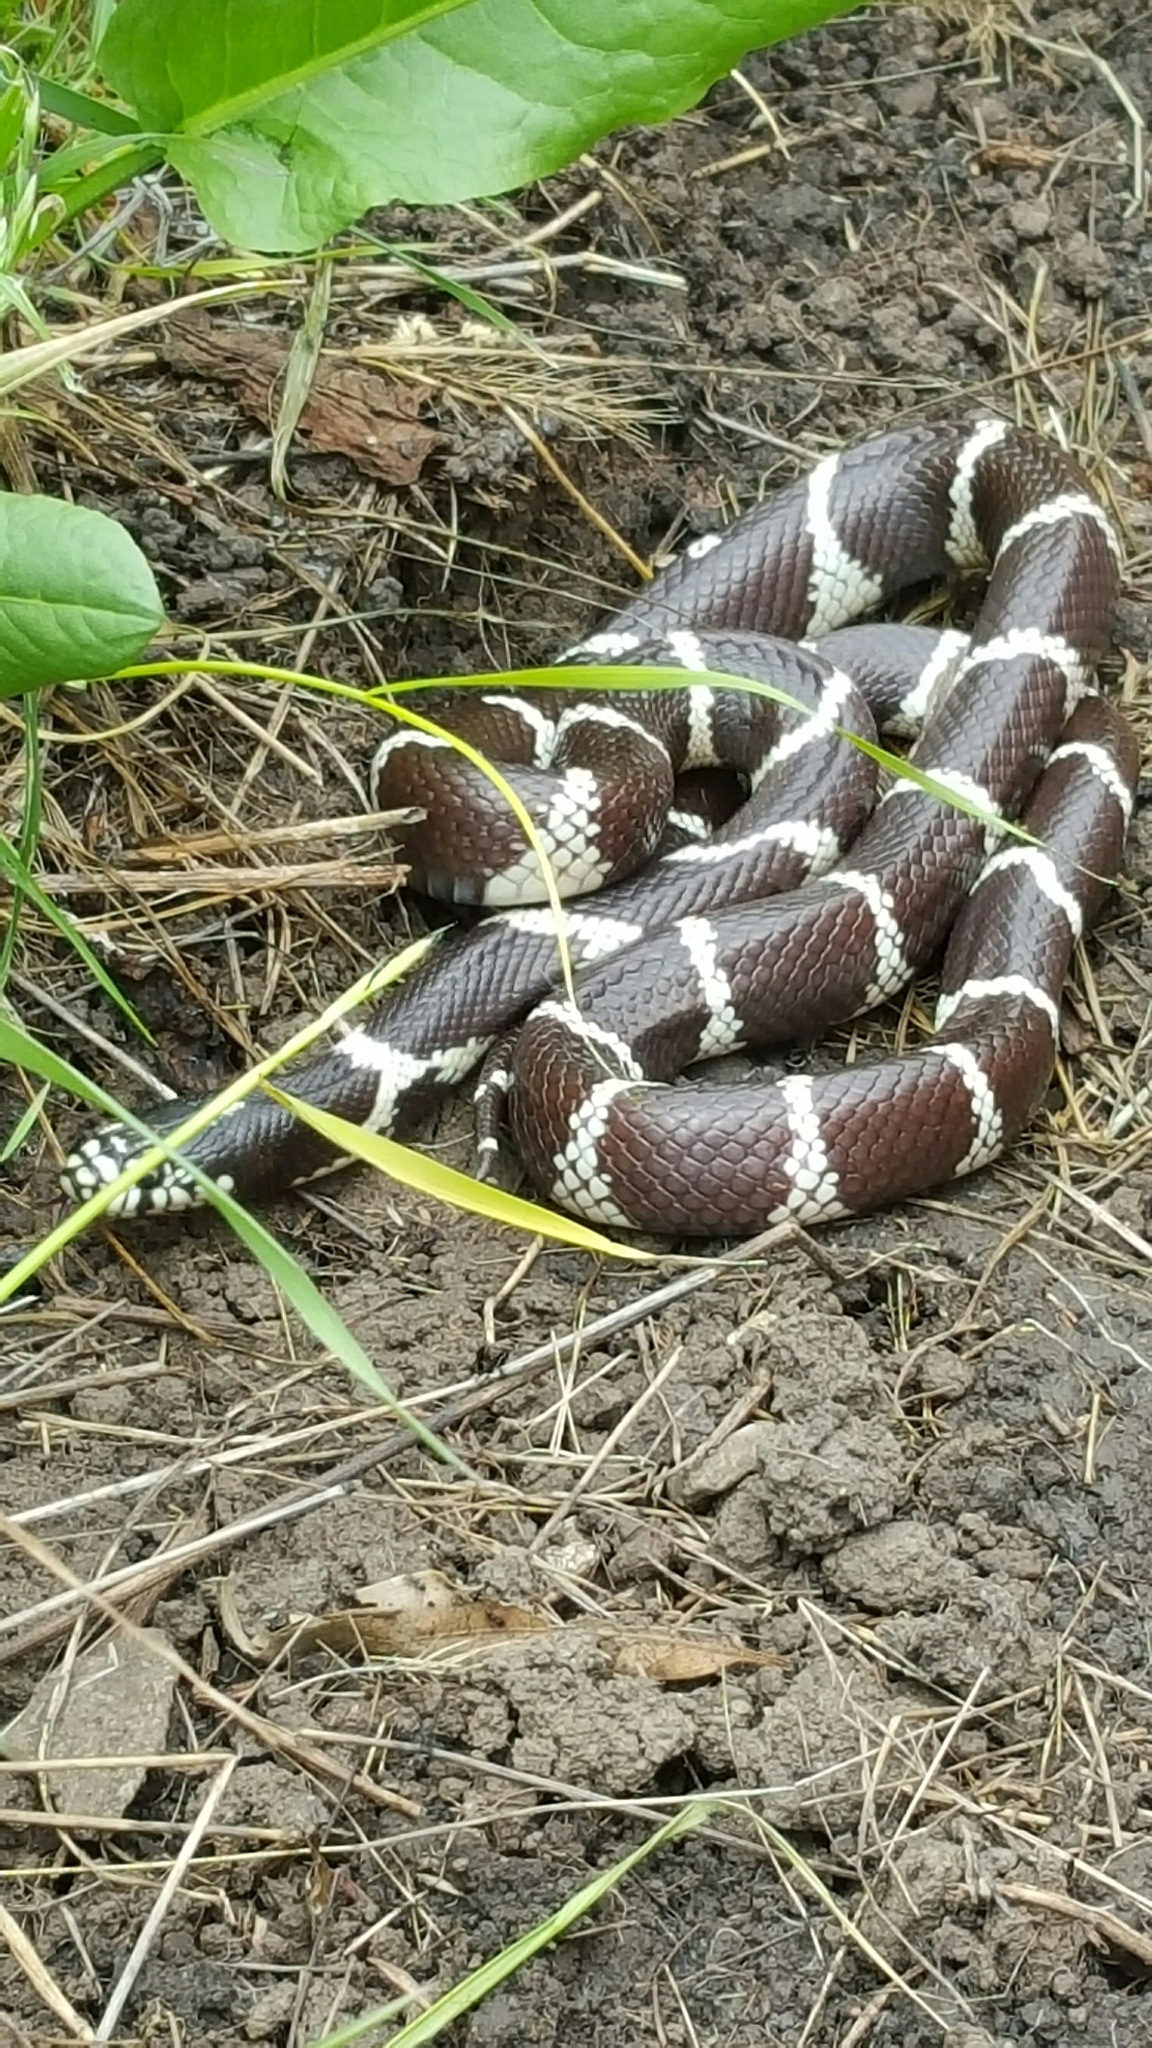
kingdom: Animalia
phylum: Chordata
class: Squamata
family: Colubridae
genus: Lampropeltis
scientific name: Lampropeltis californiae
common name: California kingsnake
